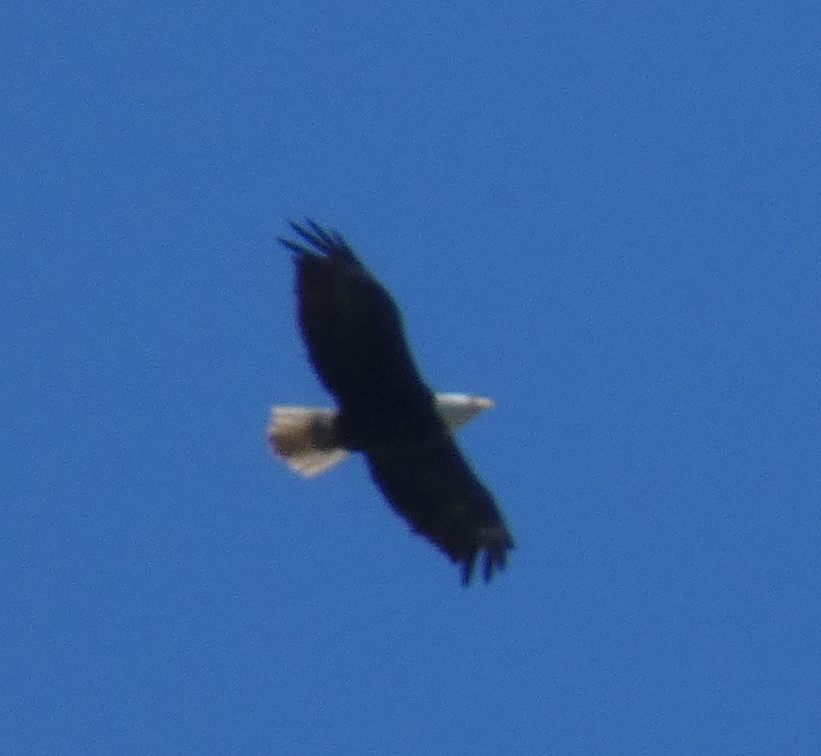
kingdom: Animalia
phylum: Chordata
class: Aves
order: Accipitriformes
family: Accipitridae
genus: Haliaeetus
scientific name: Haliaeetus leucocephalus
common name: Bald eagle
